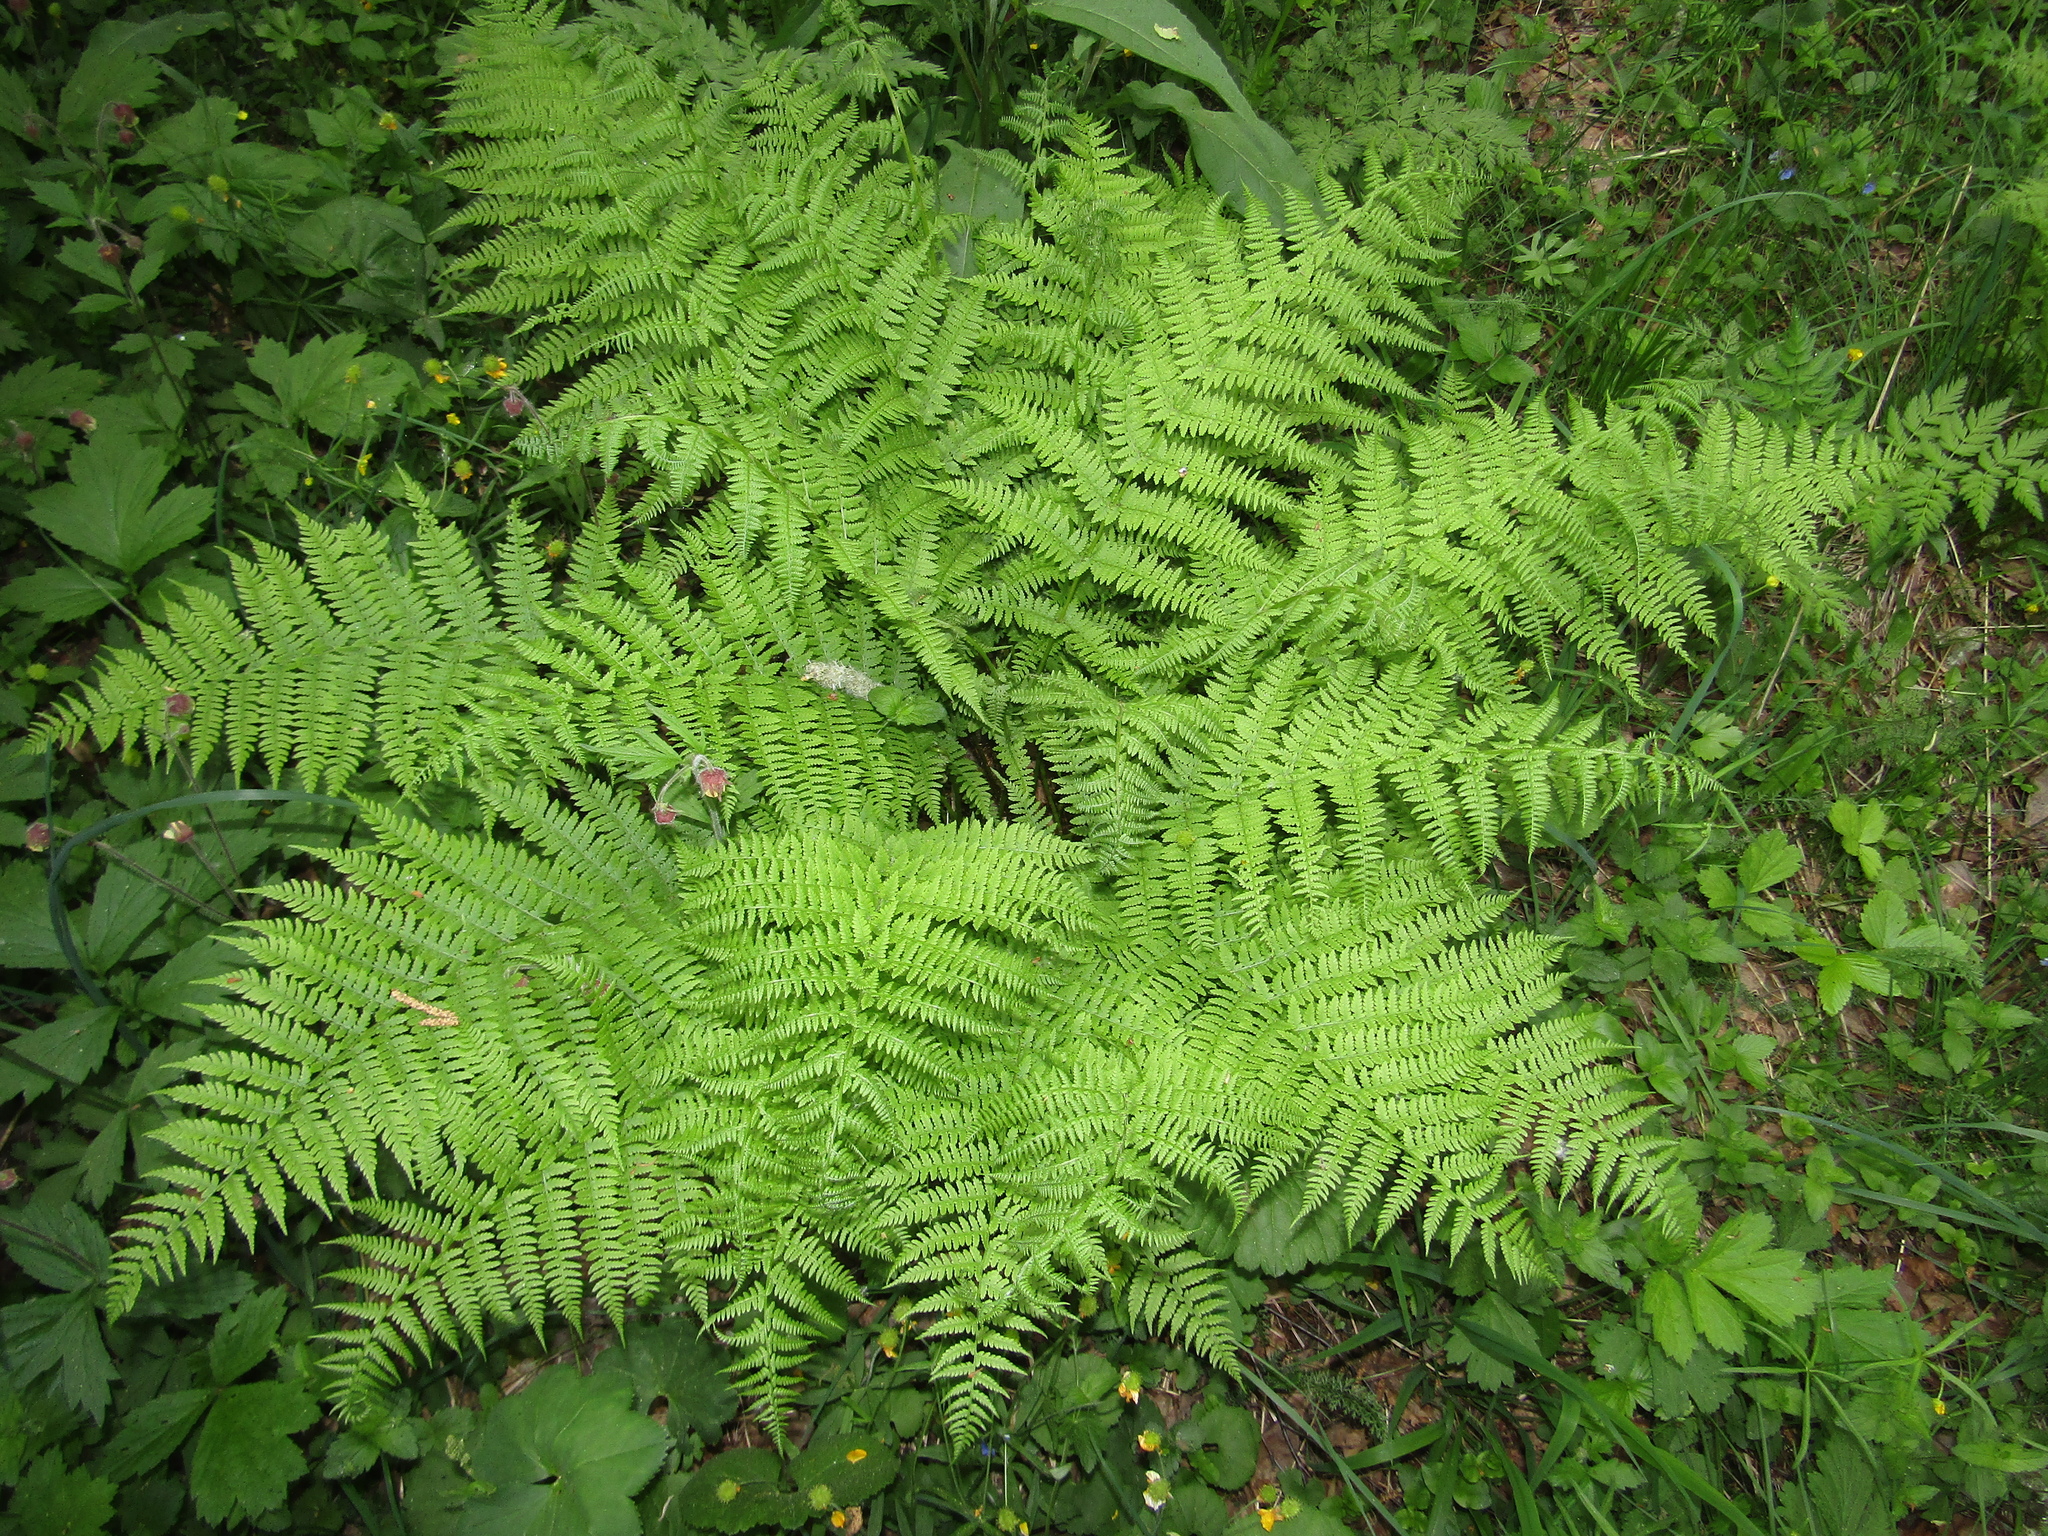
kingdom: Plantae
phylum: Tracheophyta
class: Polypodiopsida
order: Polypodiales
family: Athyriaceae
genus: Athyrium
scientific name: Athyrium filix-femina
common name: Lady fern
